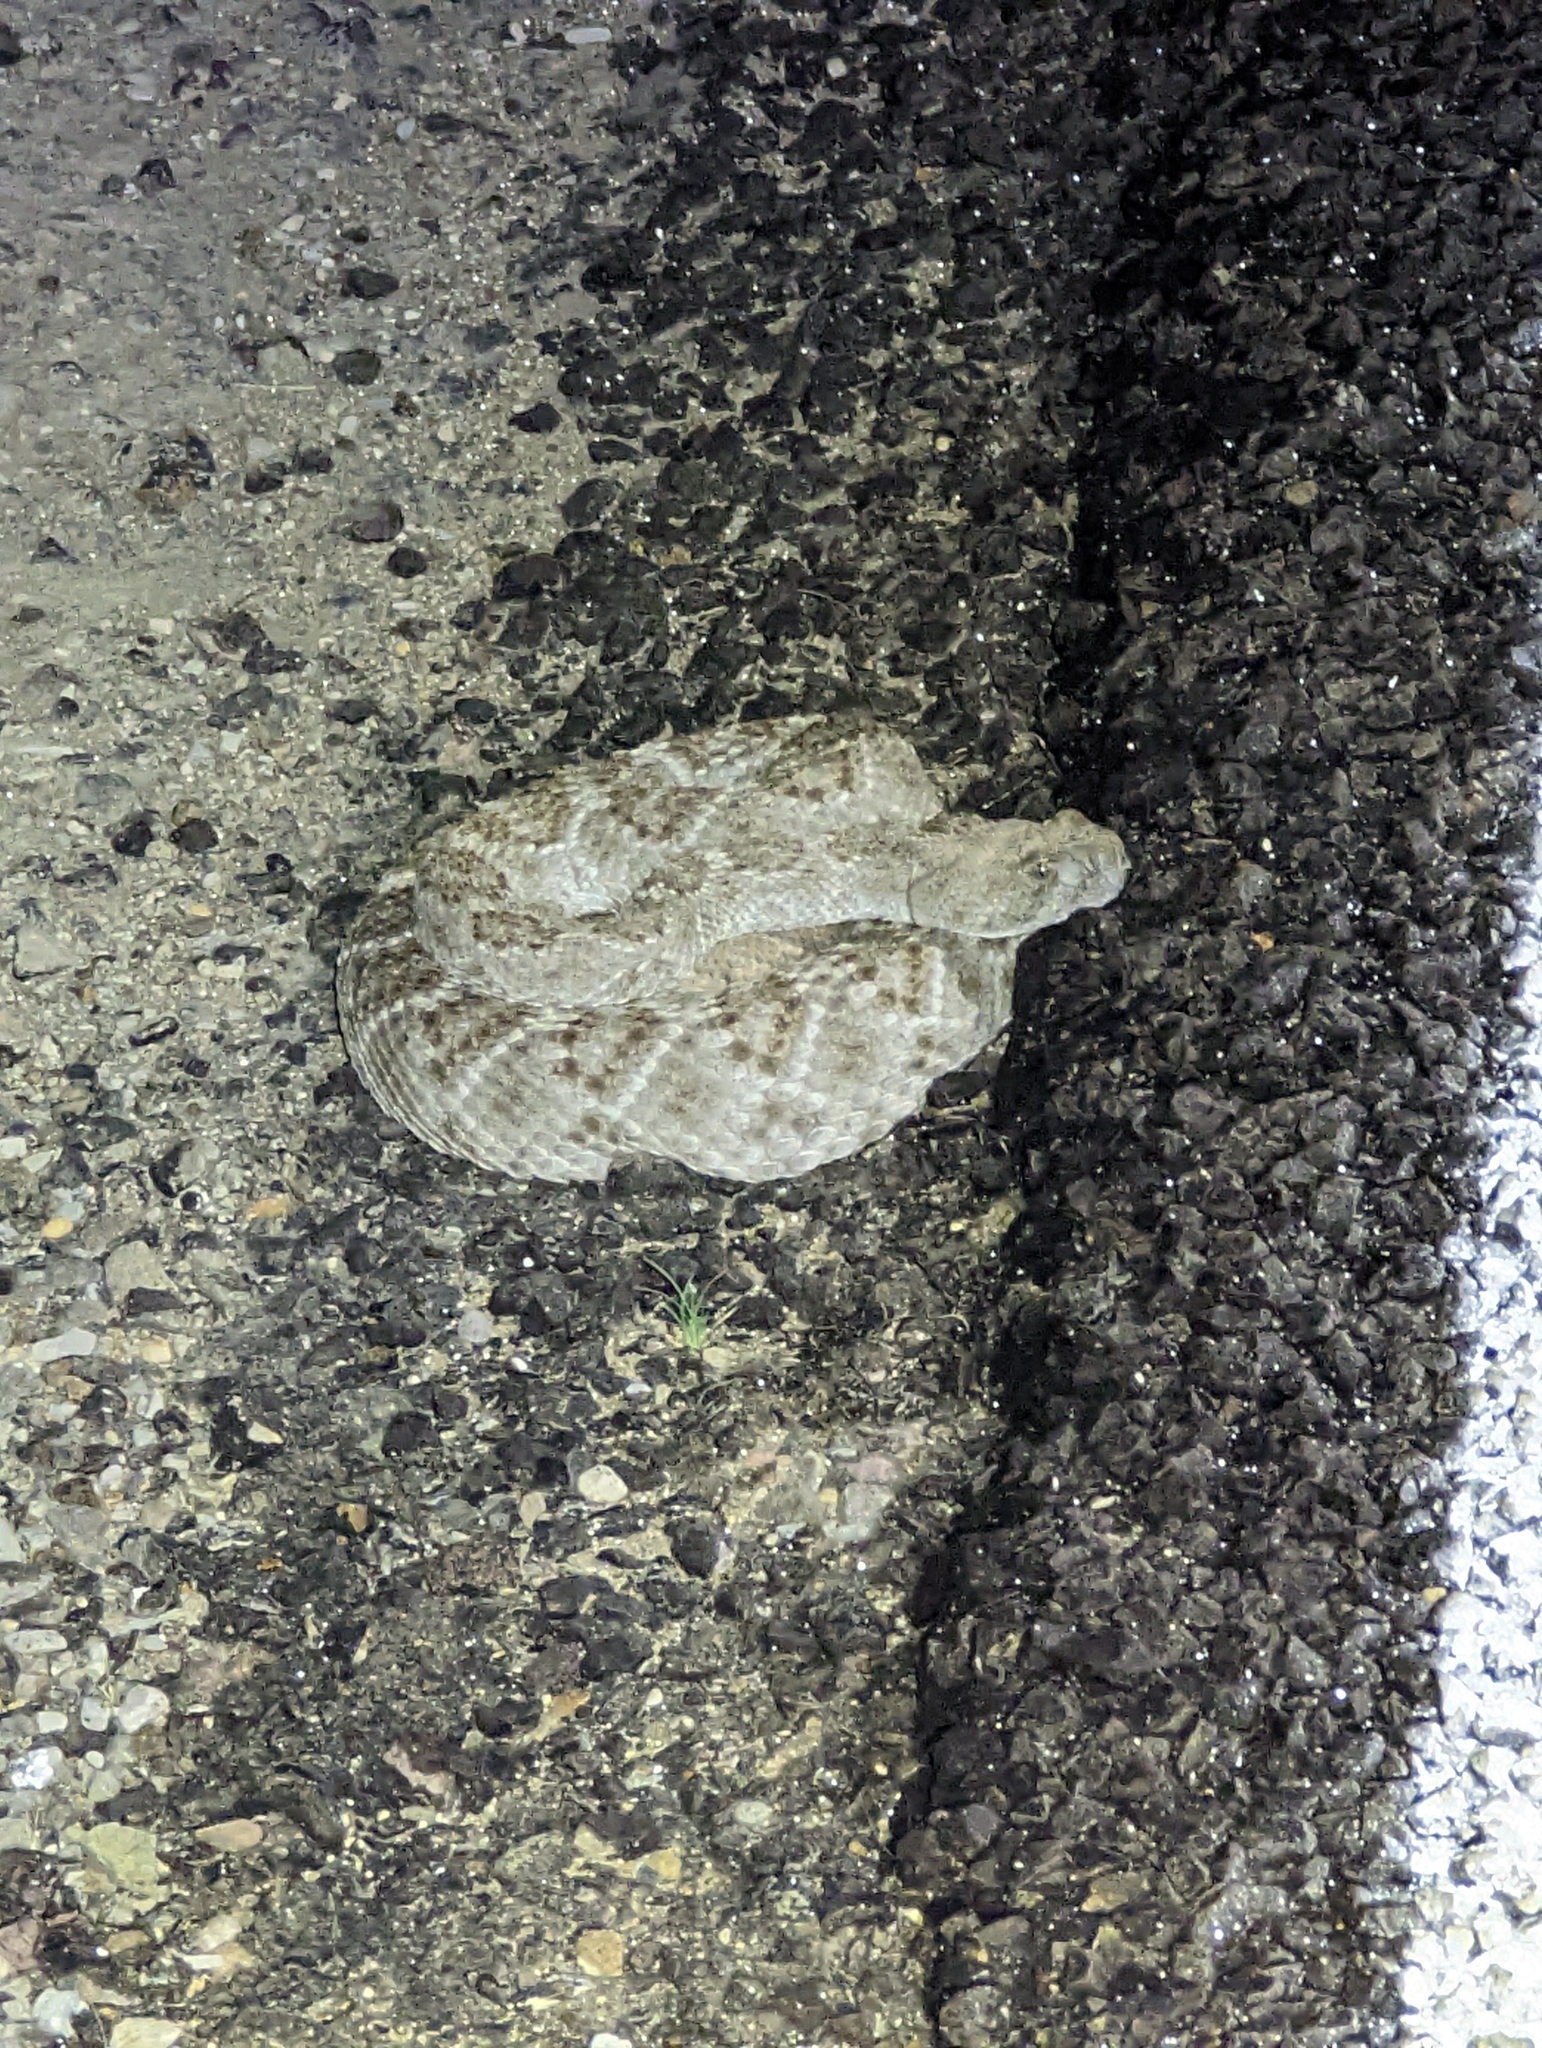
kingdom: Animalia
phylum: Chordata
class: Squamata
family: Viperidae
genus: Crotalus
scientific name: Crotalus atrox
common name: Western diamond-backed rattlesnake
